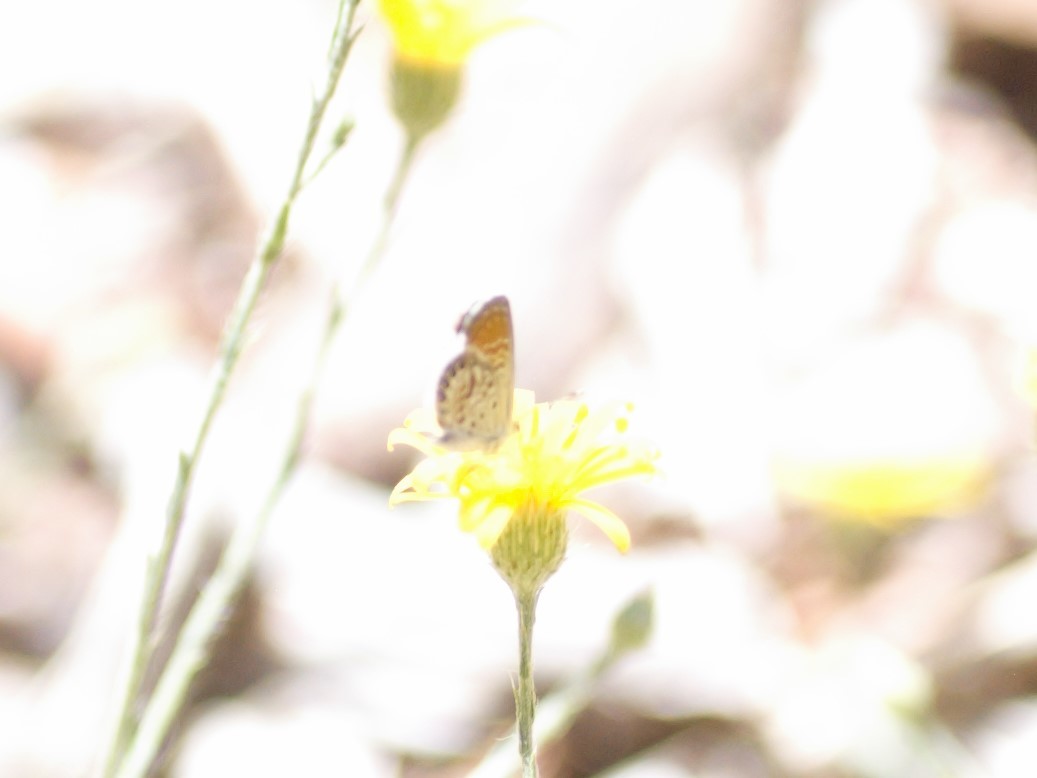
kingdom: Animalia
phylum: Arthropoda
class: Insecta
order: Lepidoptera
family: Lycaenidae
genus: Brephidium
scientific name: Brephidium exilis
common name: Pygmy blue
